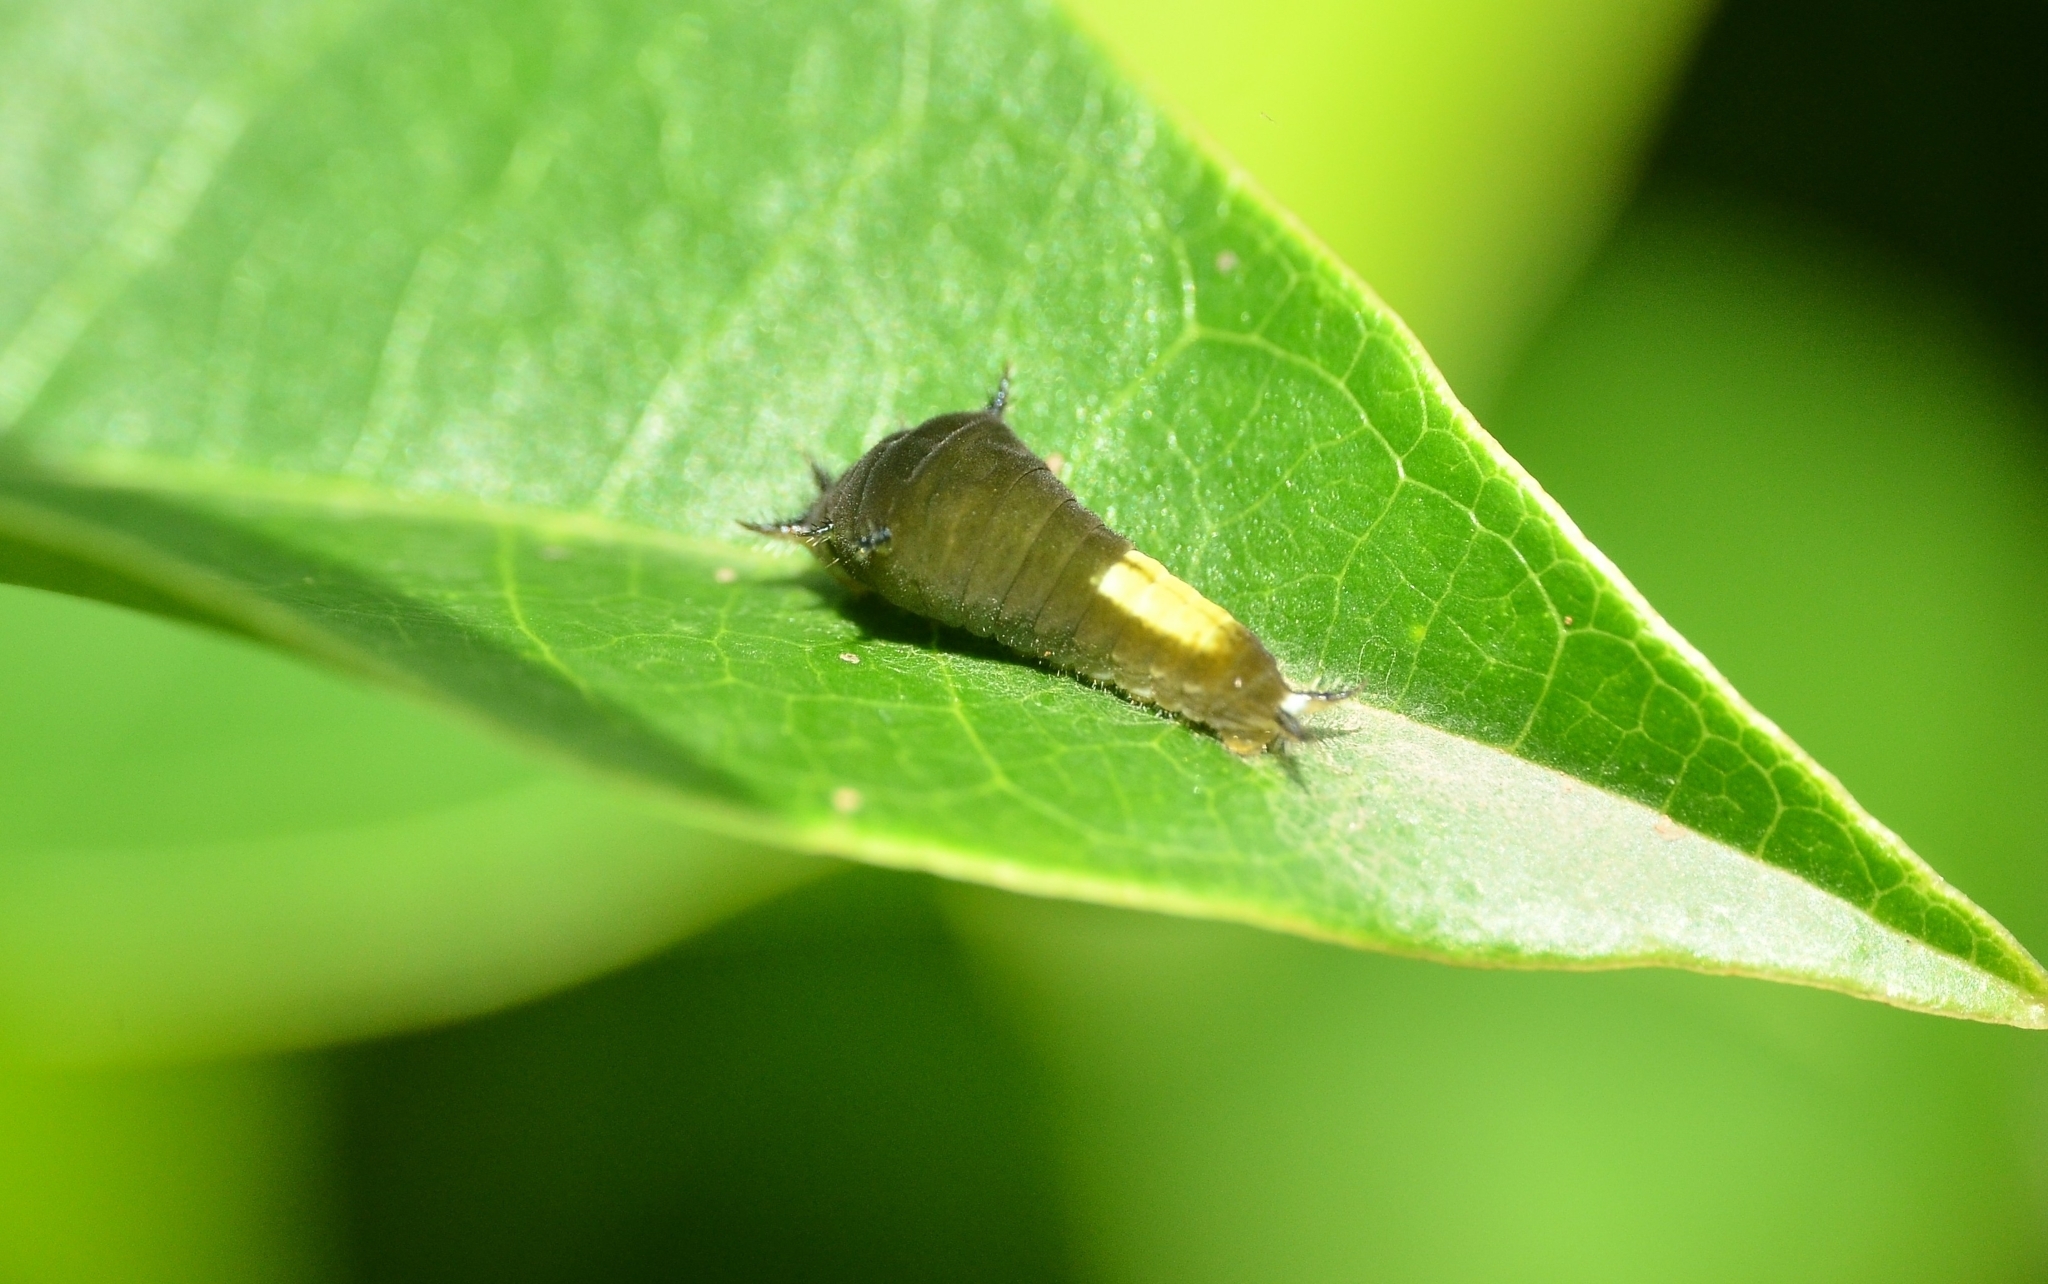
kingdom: Animalia
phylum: Arthropoda
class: Insecta
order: Lepidoptera
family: Papilionidae
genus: Graphium
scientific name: Graphium agamemnon
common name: Tailed jay
